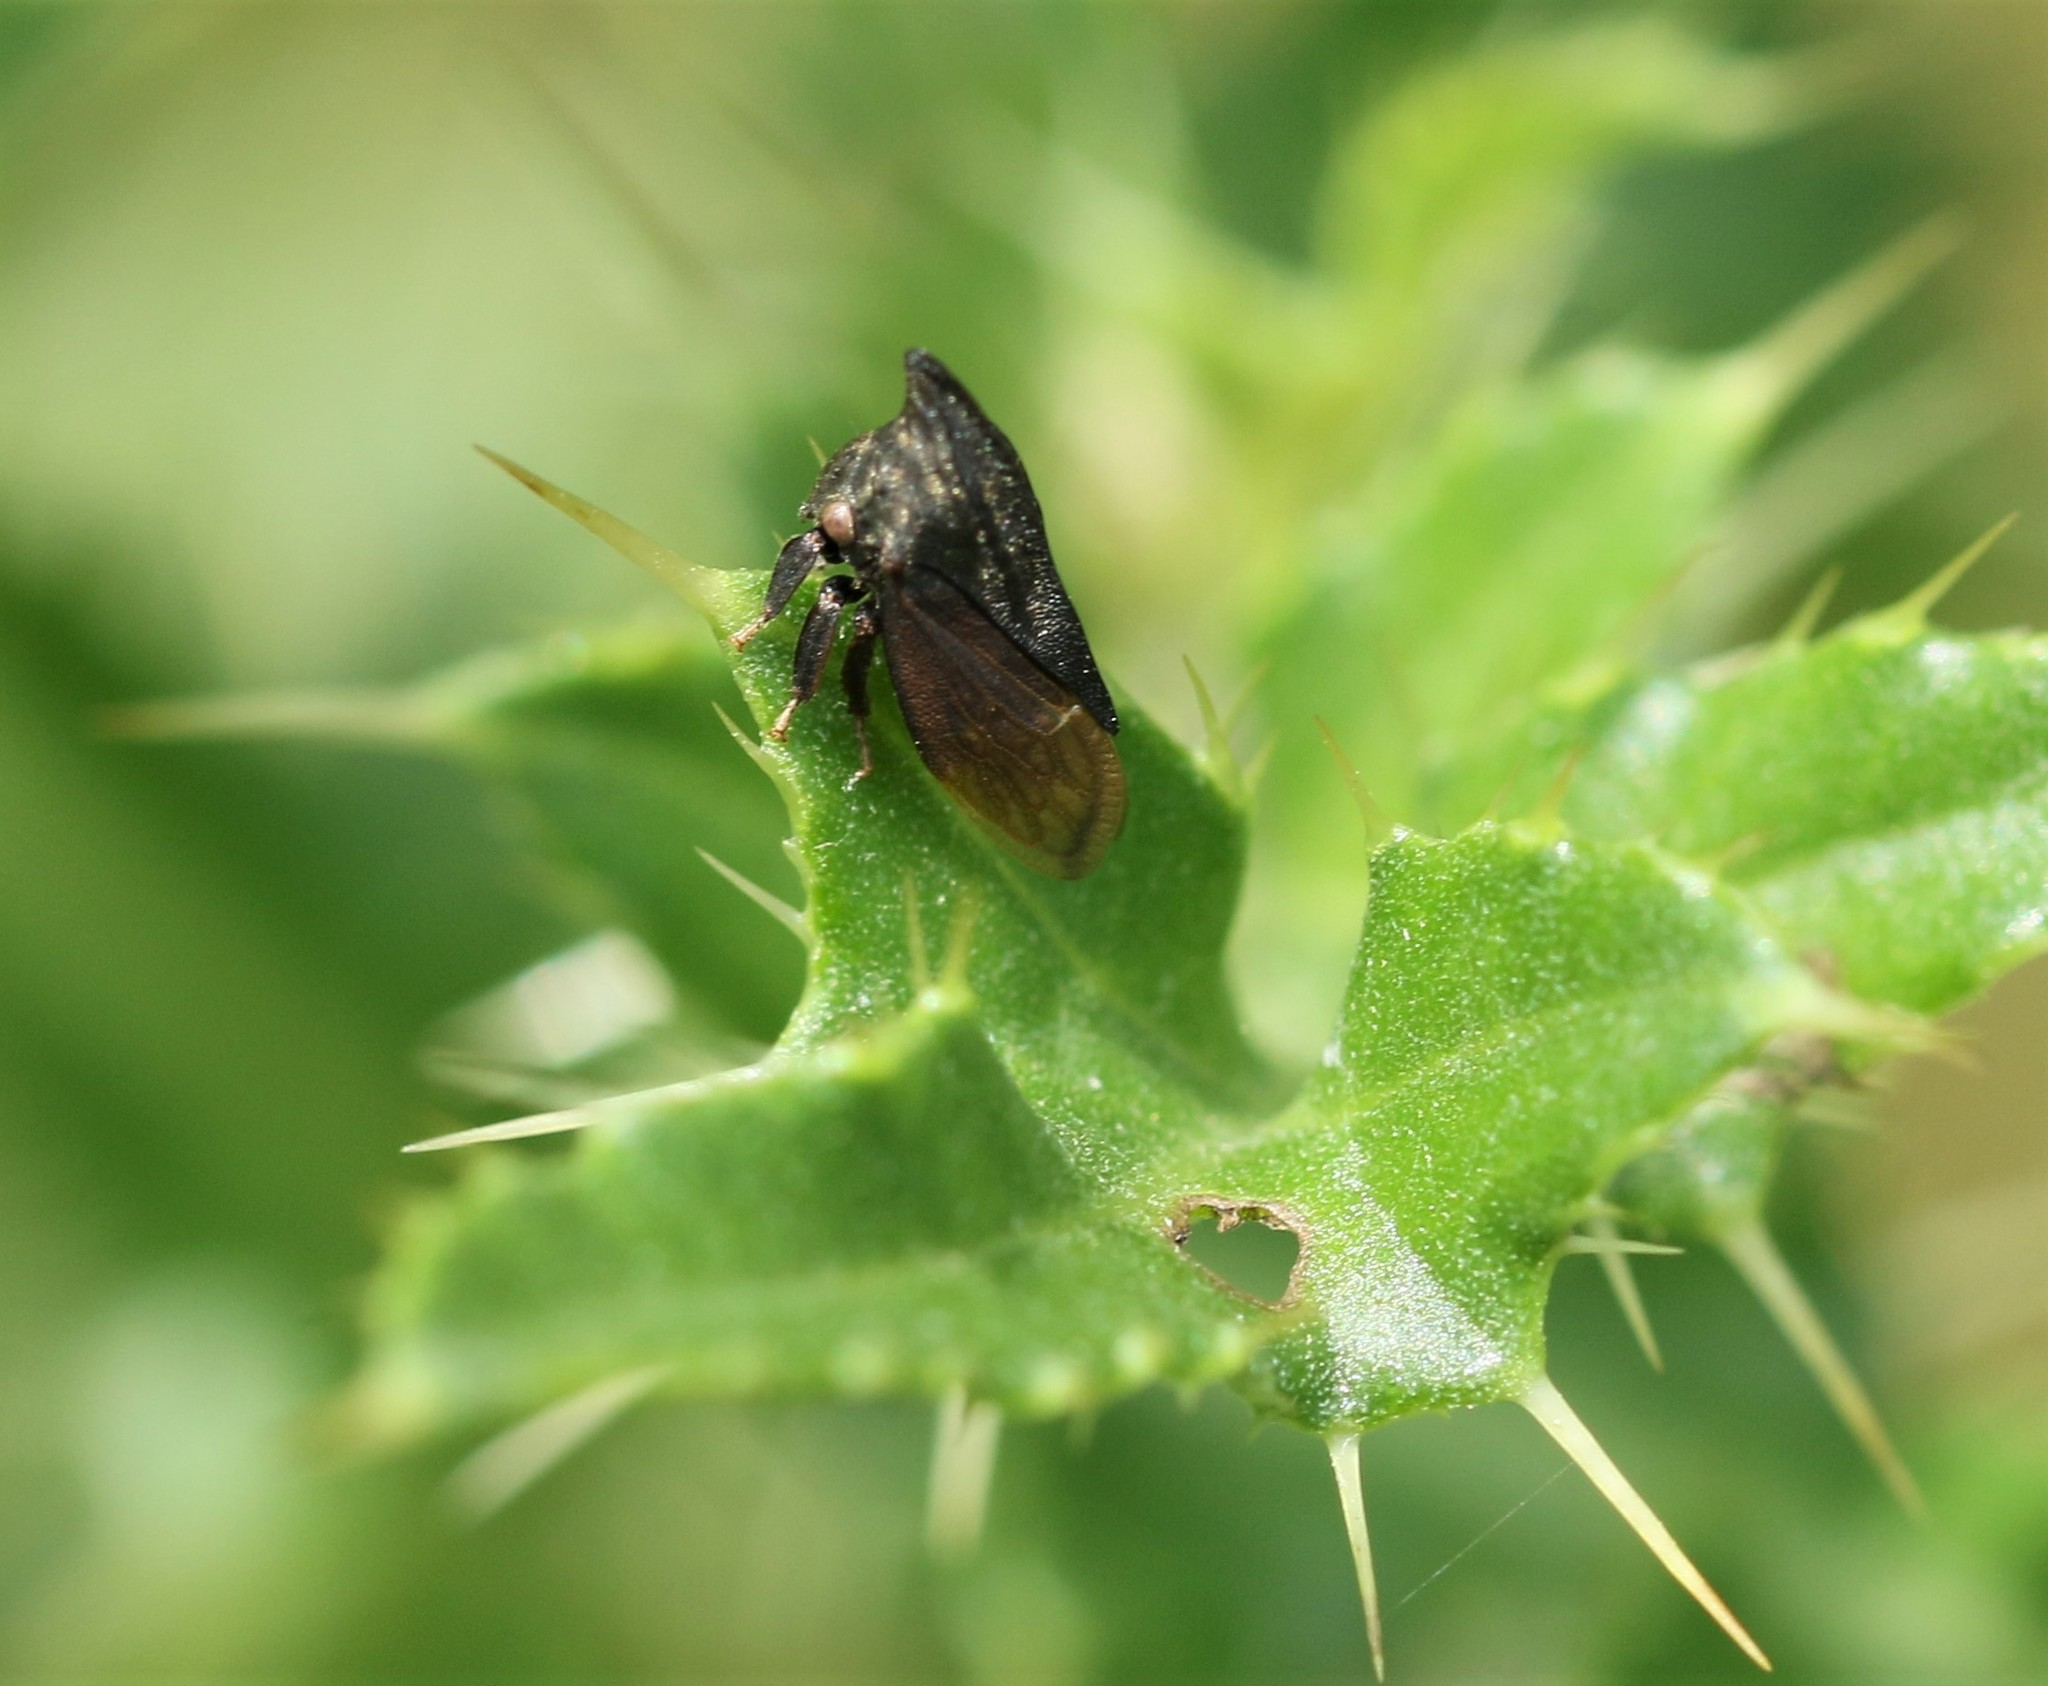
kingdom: Animalia
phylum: Arthropoda
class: Insecta
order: Hemiptera
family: Membracidae
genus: Enchenopa
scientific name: Enchenopa latipes
